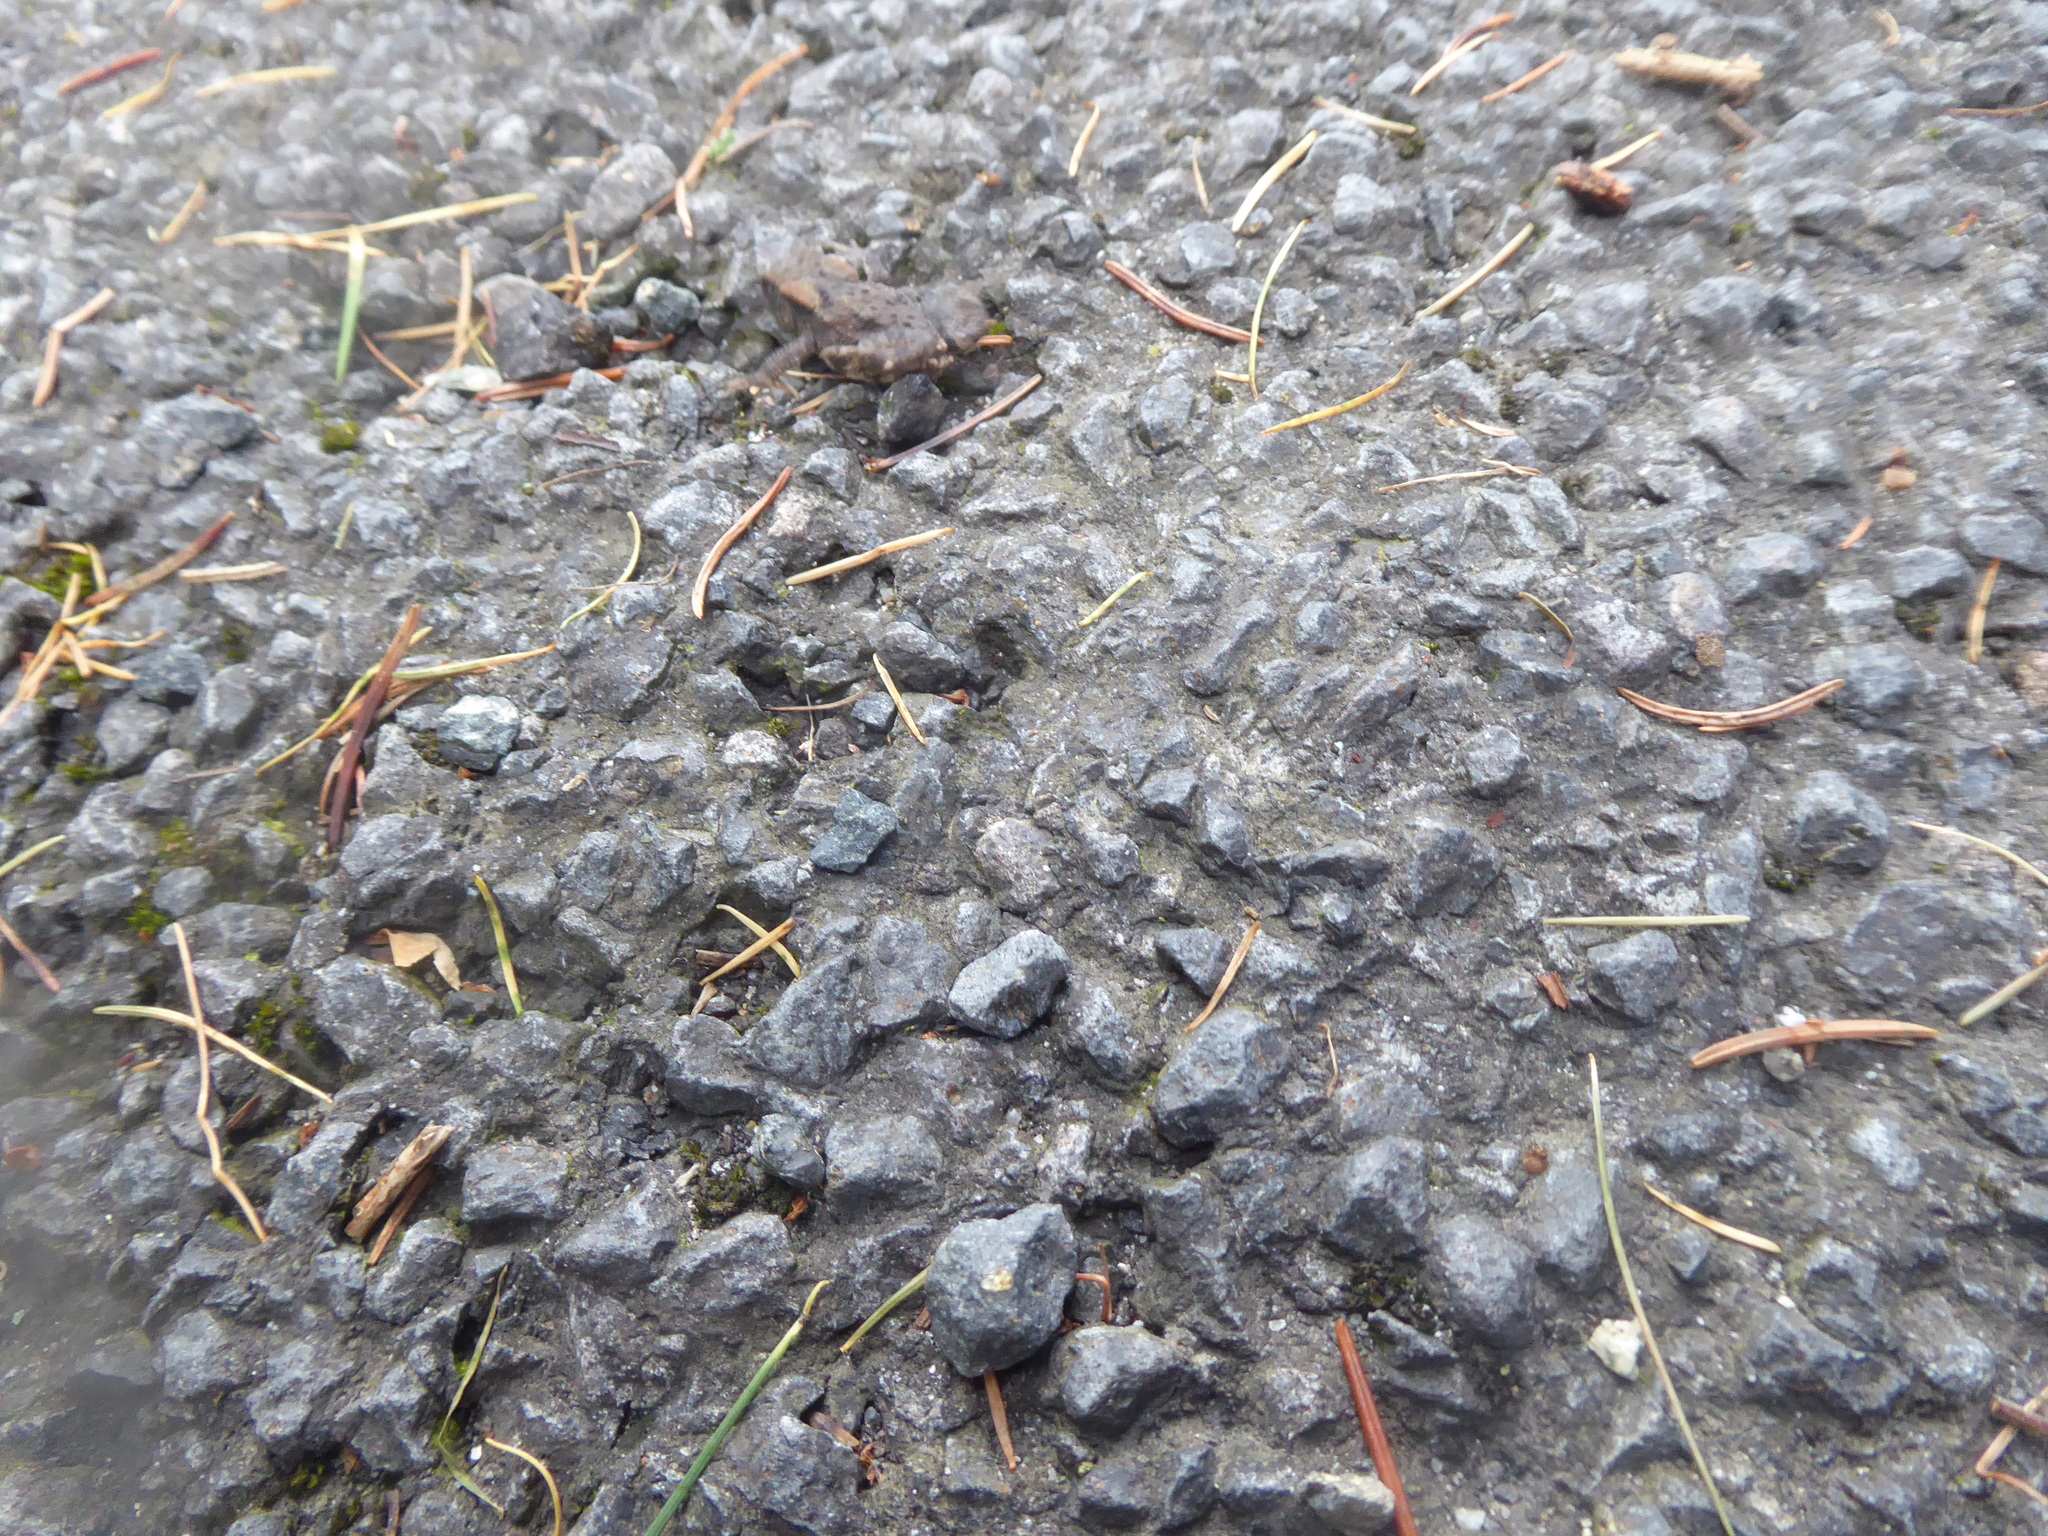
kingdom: Animalia
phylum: Chordata
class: Amphibia
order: Anura
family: Bufonidae
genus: Bufo
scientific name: Bufo bufo
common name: Common toad
